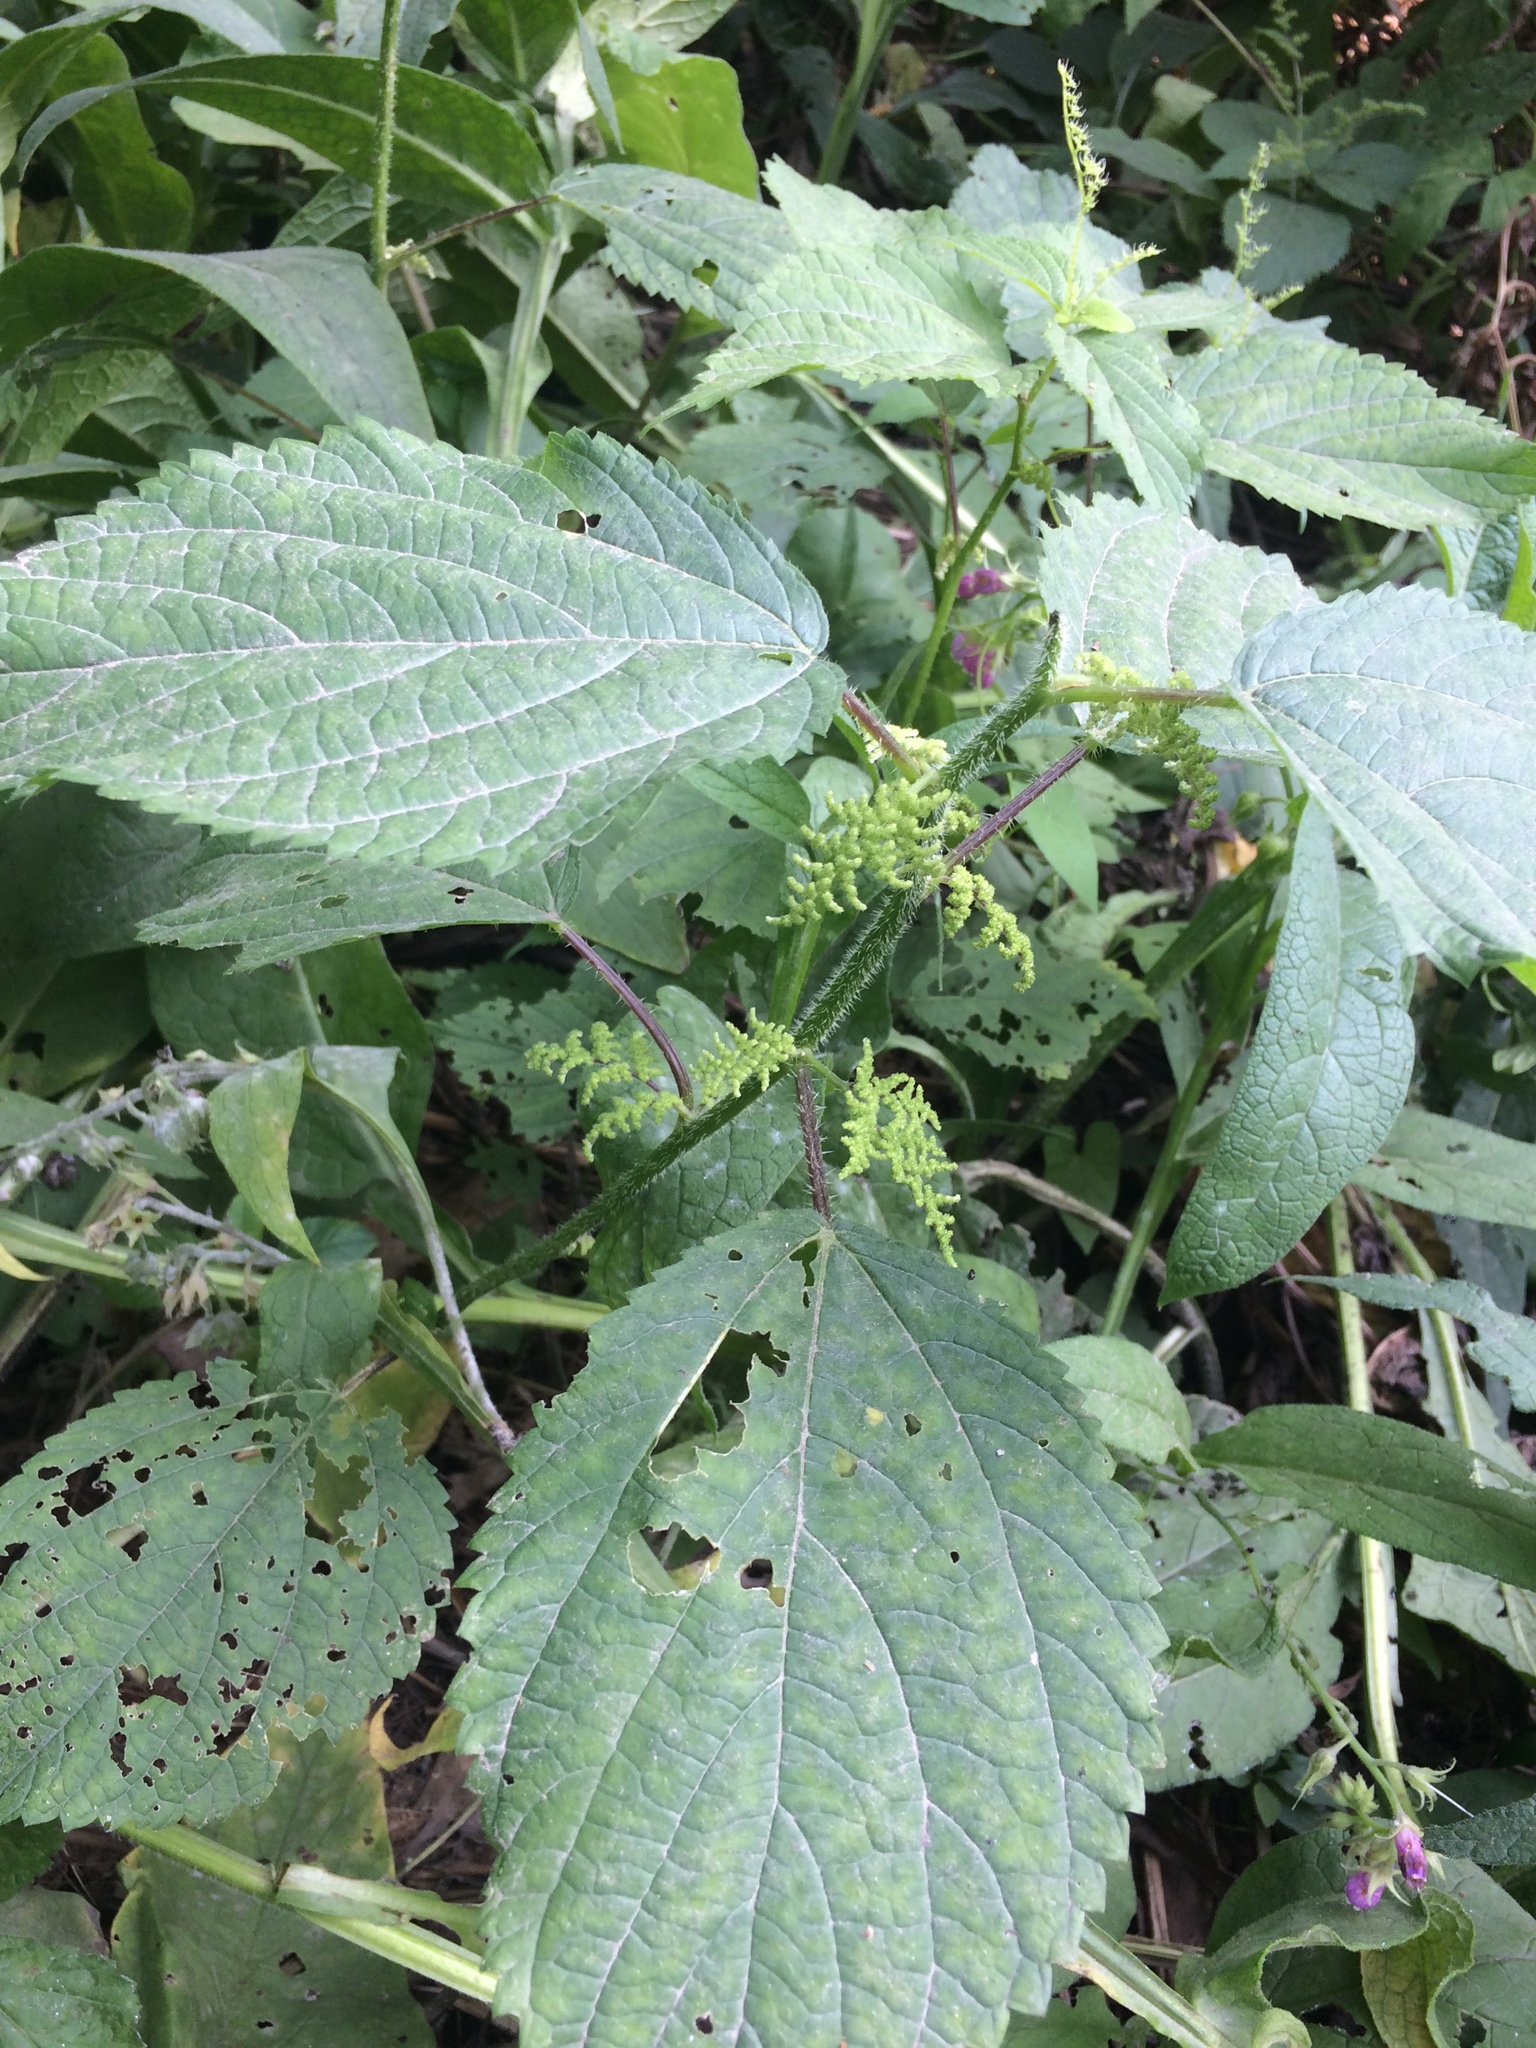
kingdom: Plantae
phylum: Tracheophyta
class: Magnoliopsida
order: Rosales
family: Urticaceae
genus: Laportea
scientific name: Laportea canadensis
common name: Canada nettle
